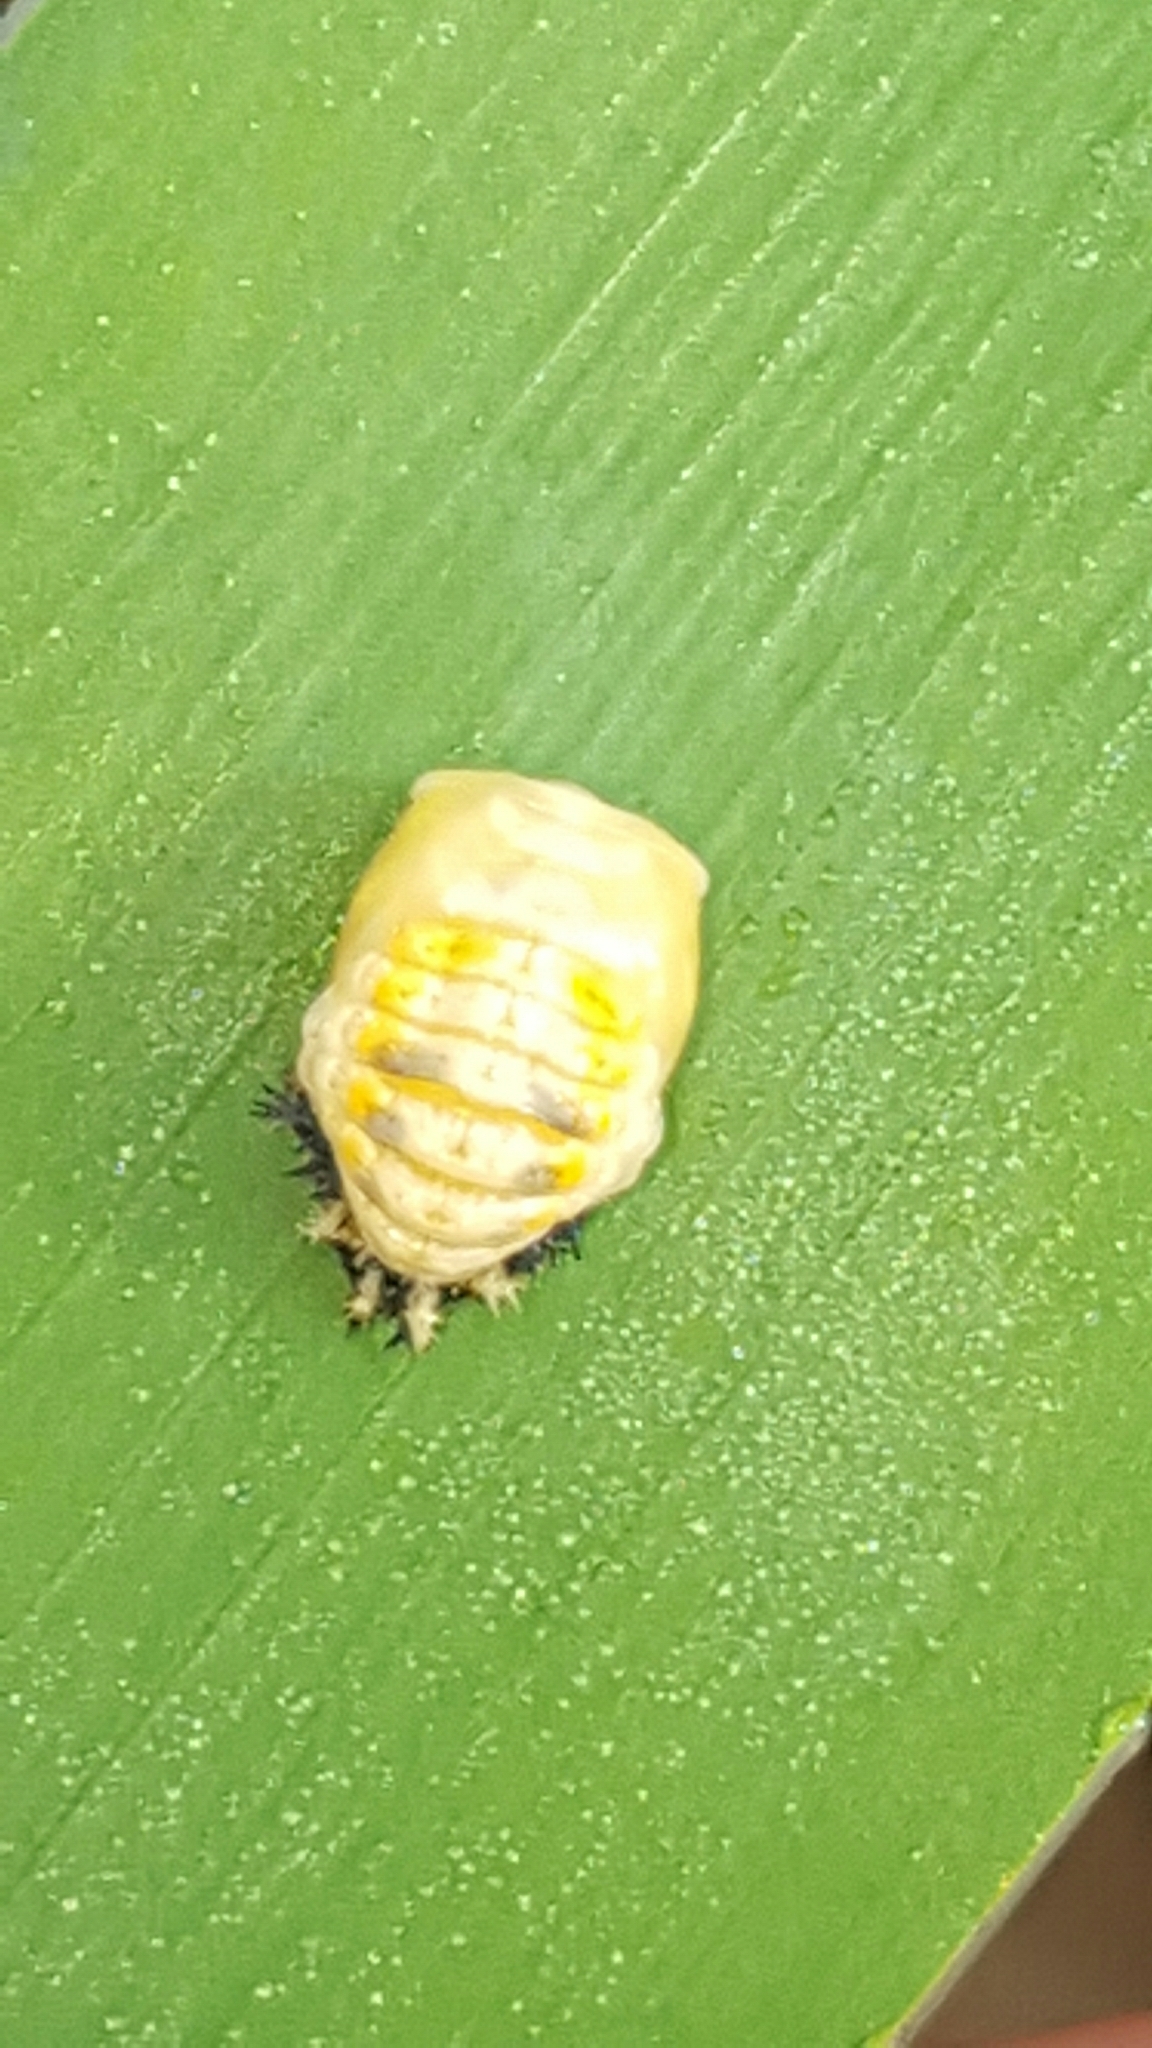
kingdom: Animalia
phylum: Arthropoda
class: Insecta
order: Coleoptera
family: Coccinellidae
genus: Harmonia
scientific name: Harmonia axyridis
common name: Harlequin ladybird
